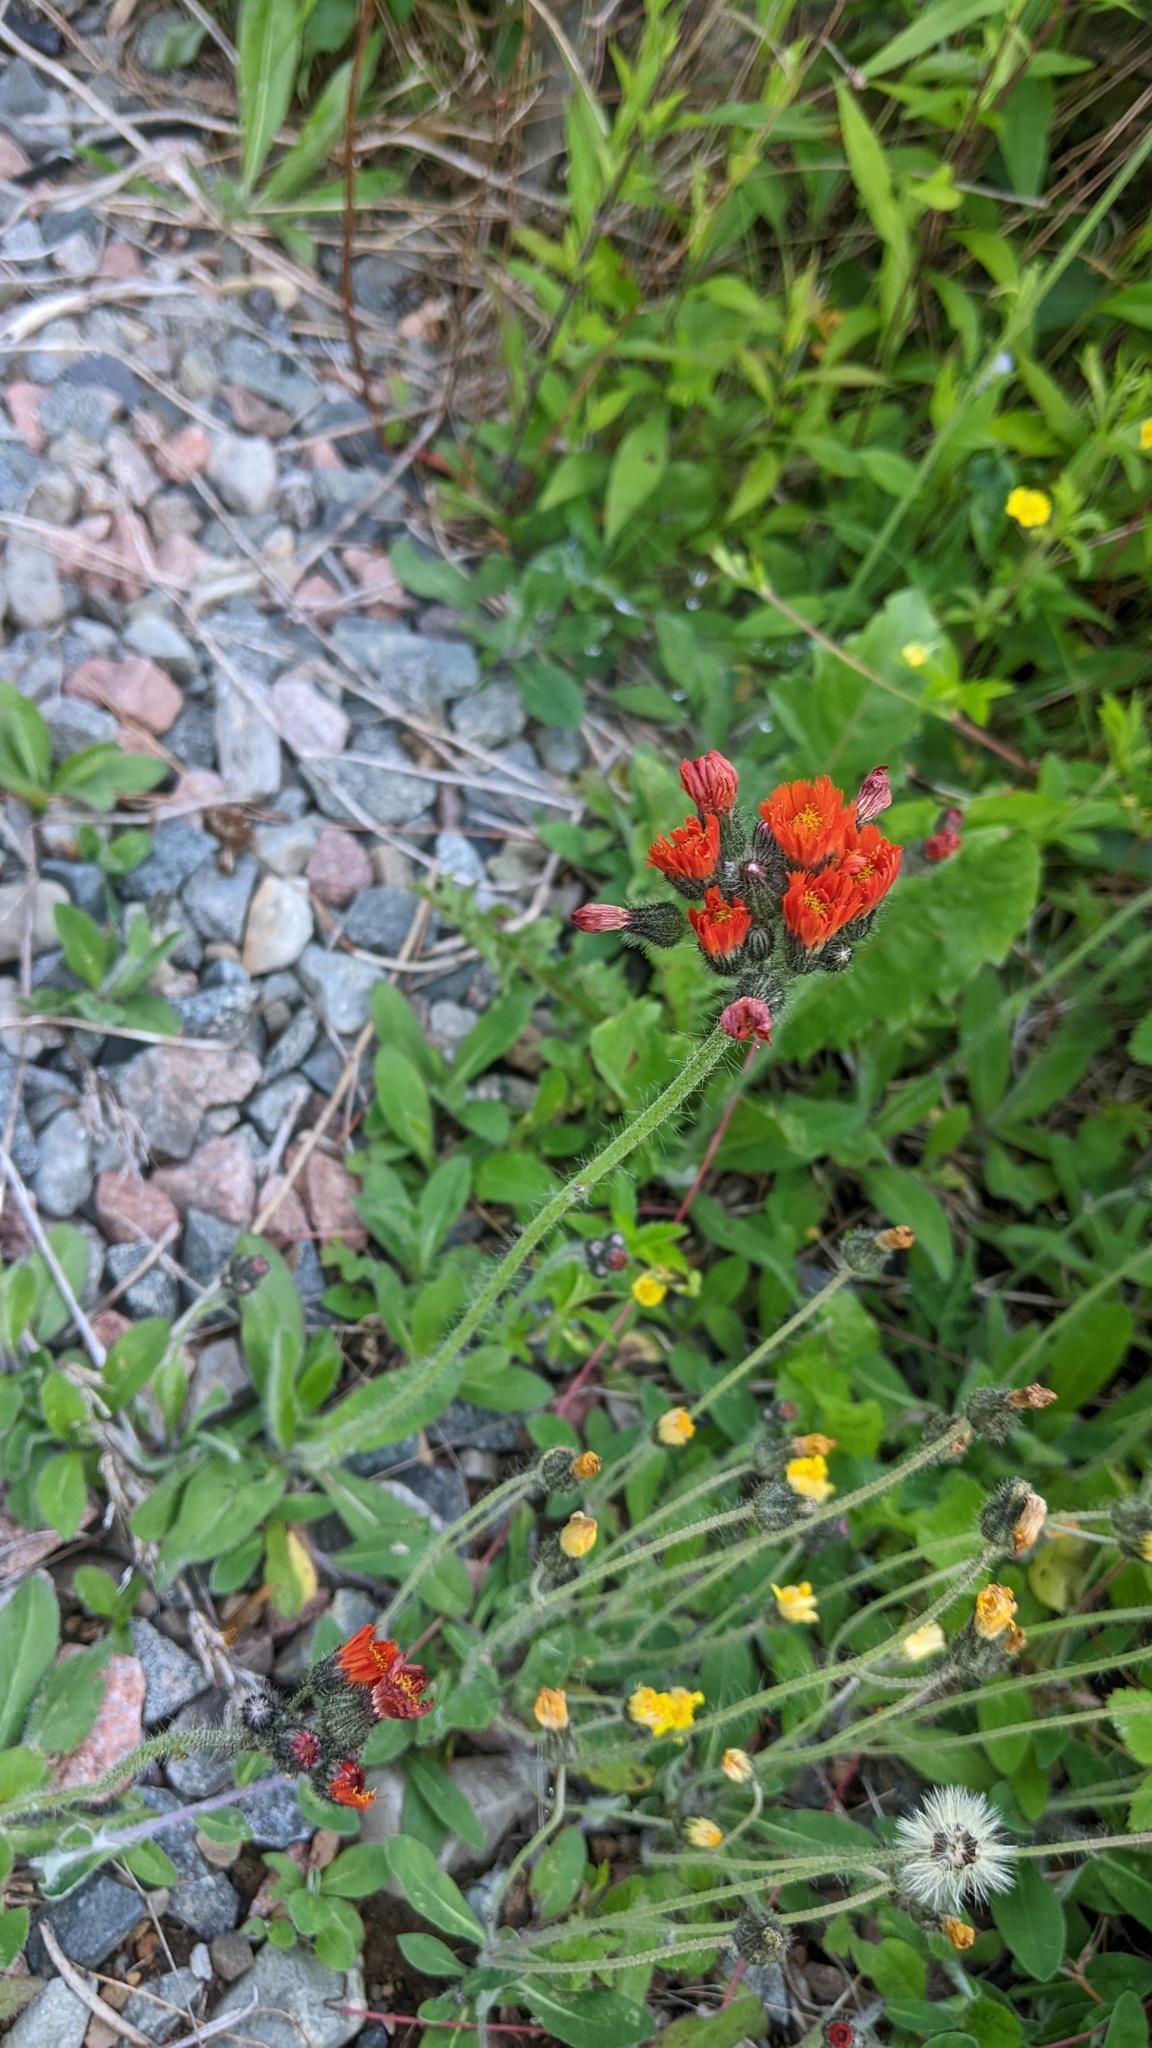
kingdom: Plantae
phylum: Tracheophyta
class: Magnoliopsida
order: Asterales
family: Asteraceae
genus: Pilosella
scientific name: Pilosella aurantiaca
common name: Fox-and-cubs
